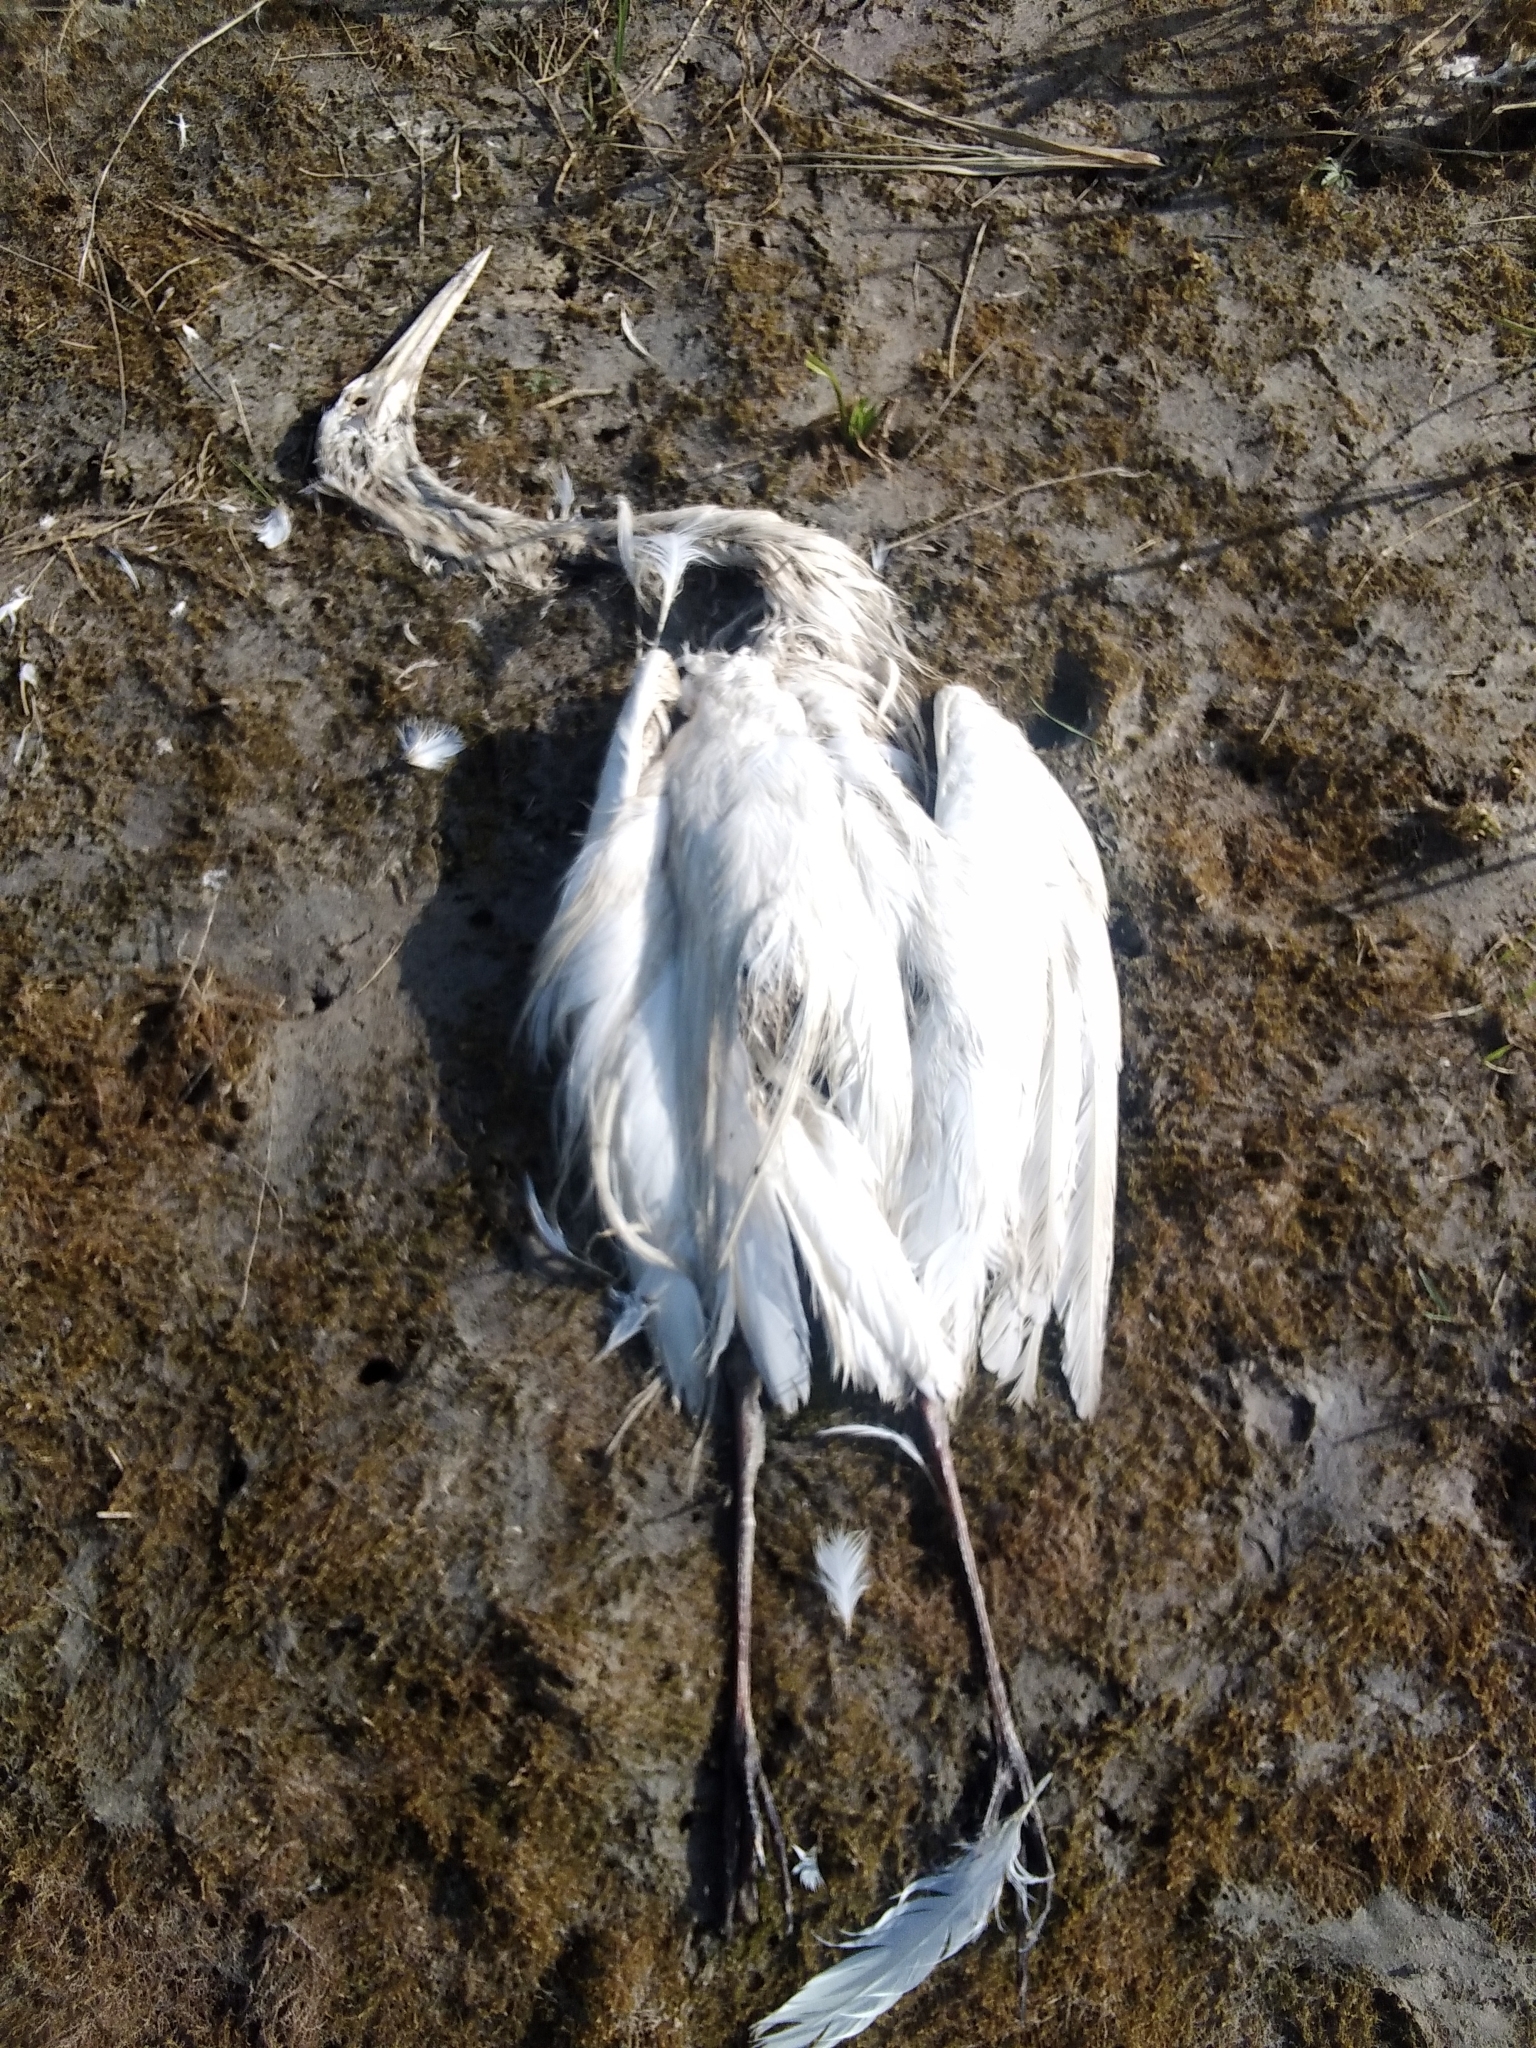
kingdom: Animalia
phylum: Chordata
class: Aves
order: Pelecaniformes
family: Ardeidae
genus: Ardea
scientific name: Ardea alba
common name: Great egret
